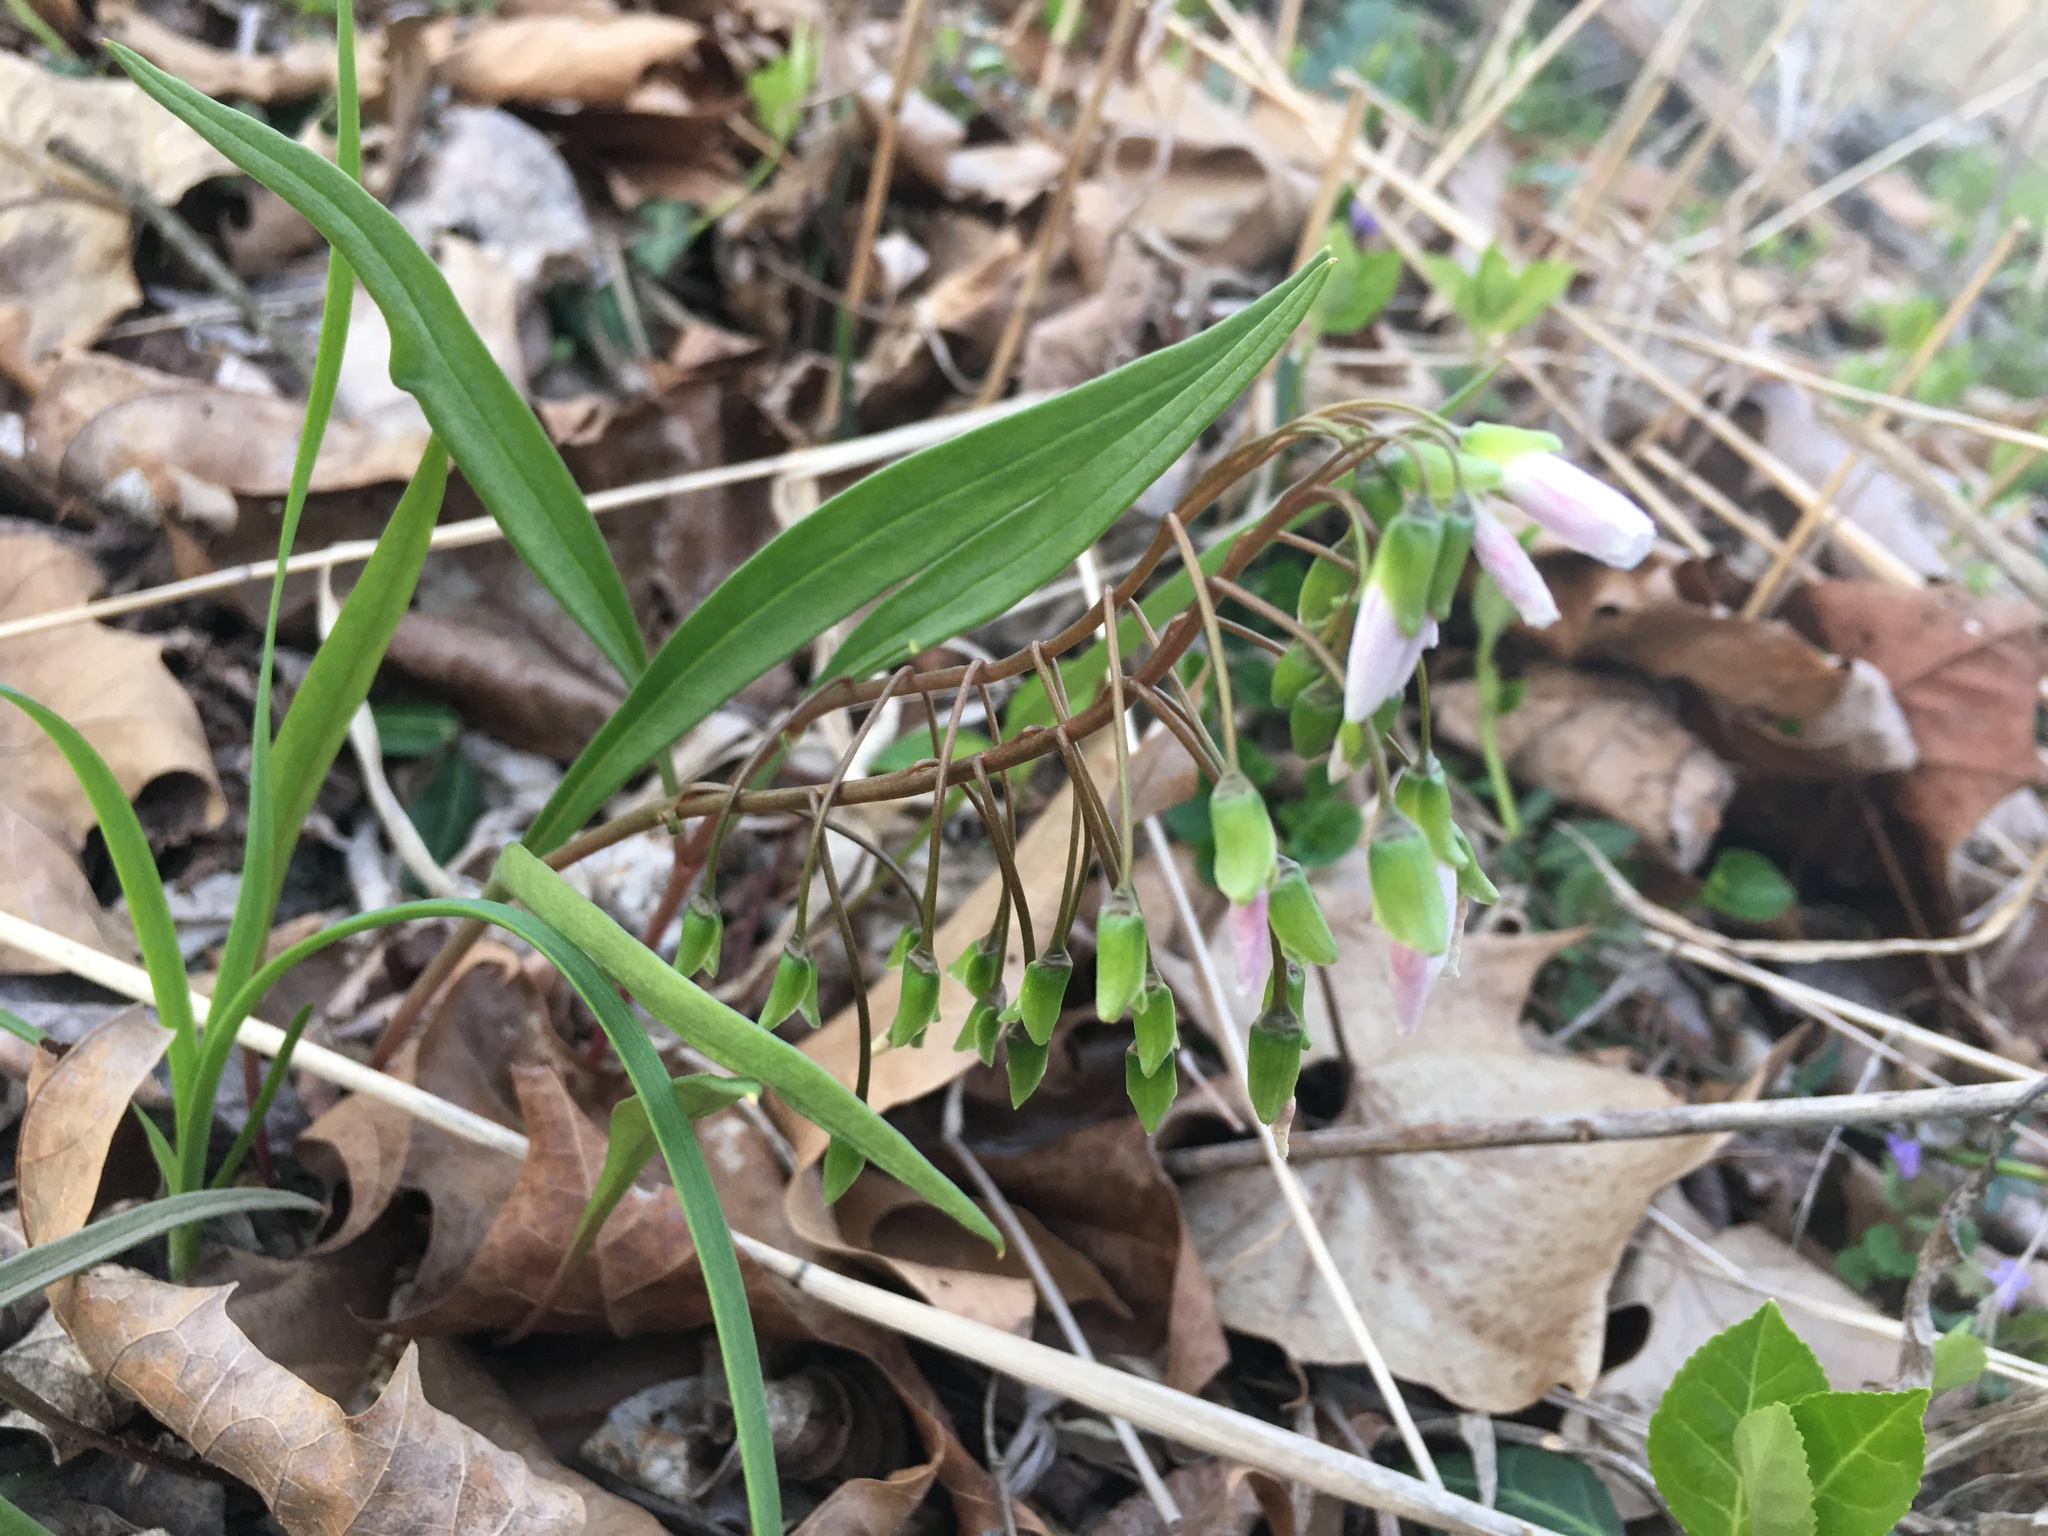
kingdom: Plantae
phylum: Tracheophyta
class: Magnoliopsida
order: Caryophyllales
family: Montiaceae
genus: Claytonia
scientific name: Claytonia virginica
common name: Virginia springbeauty
